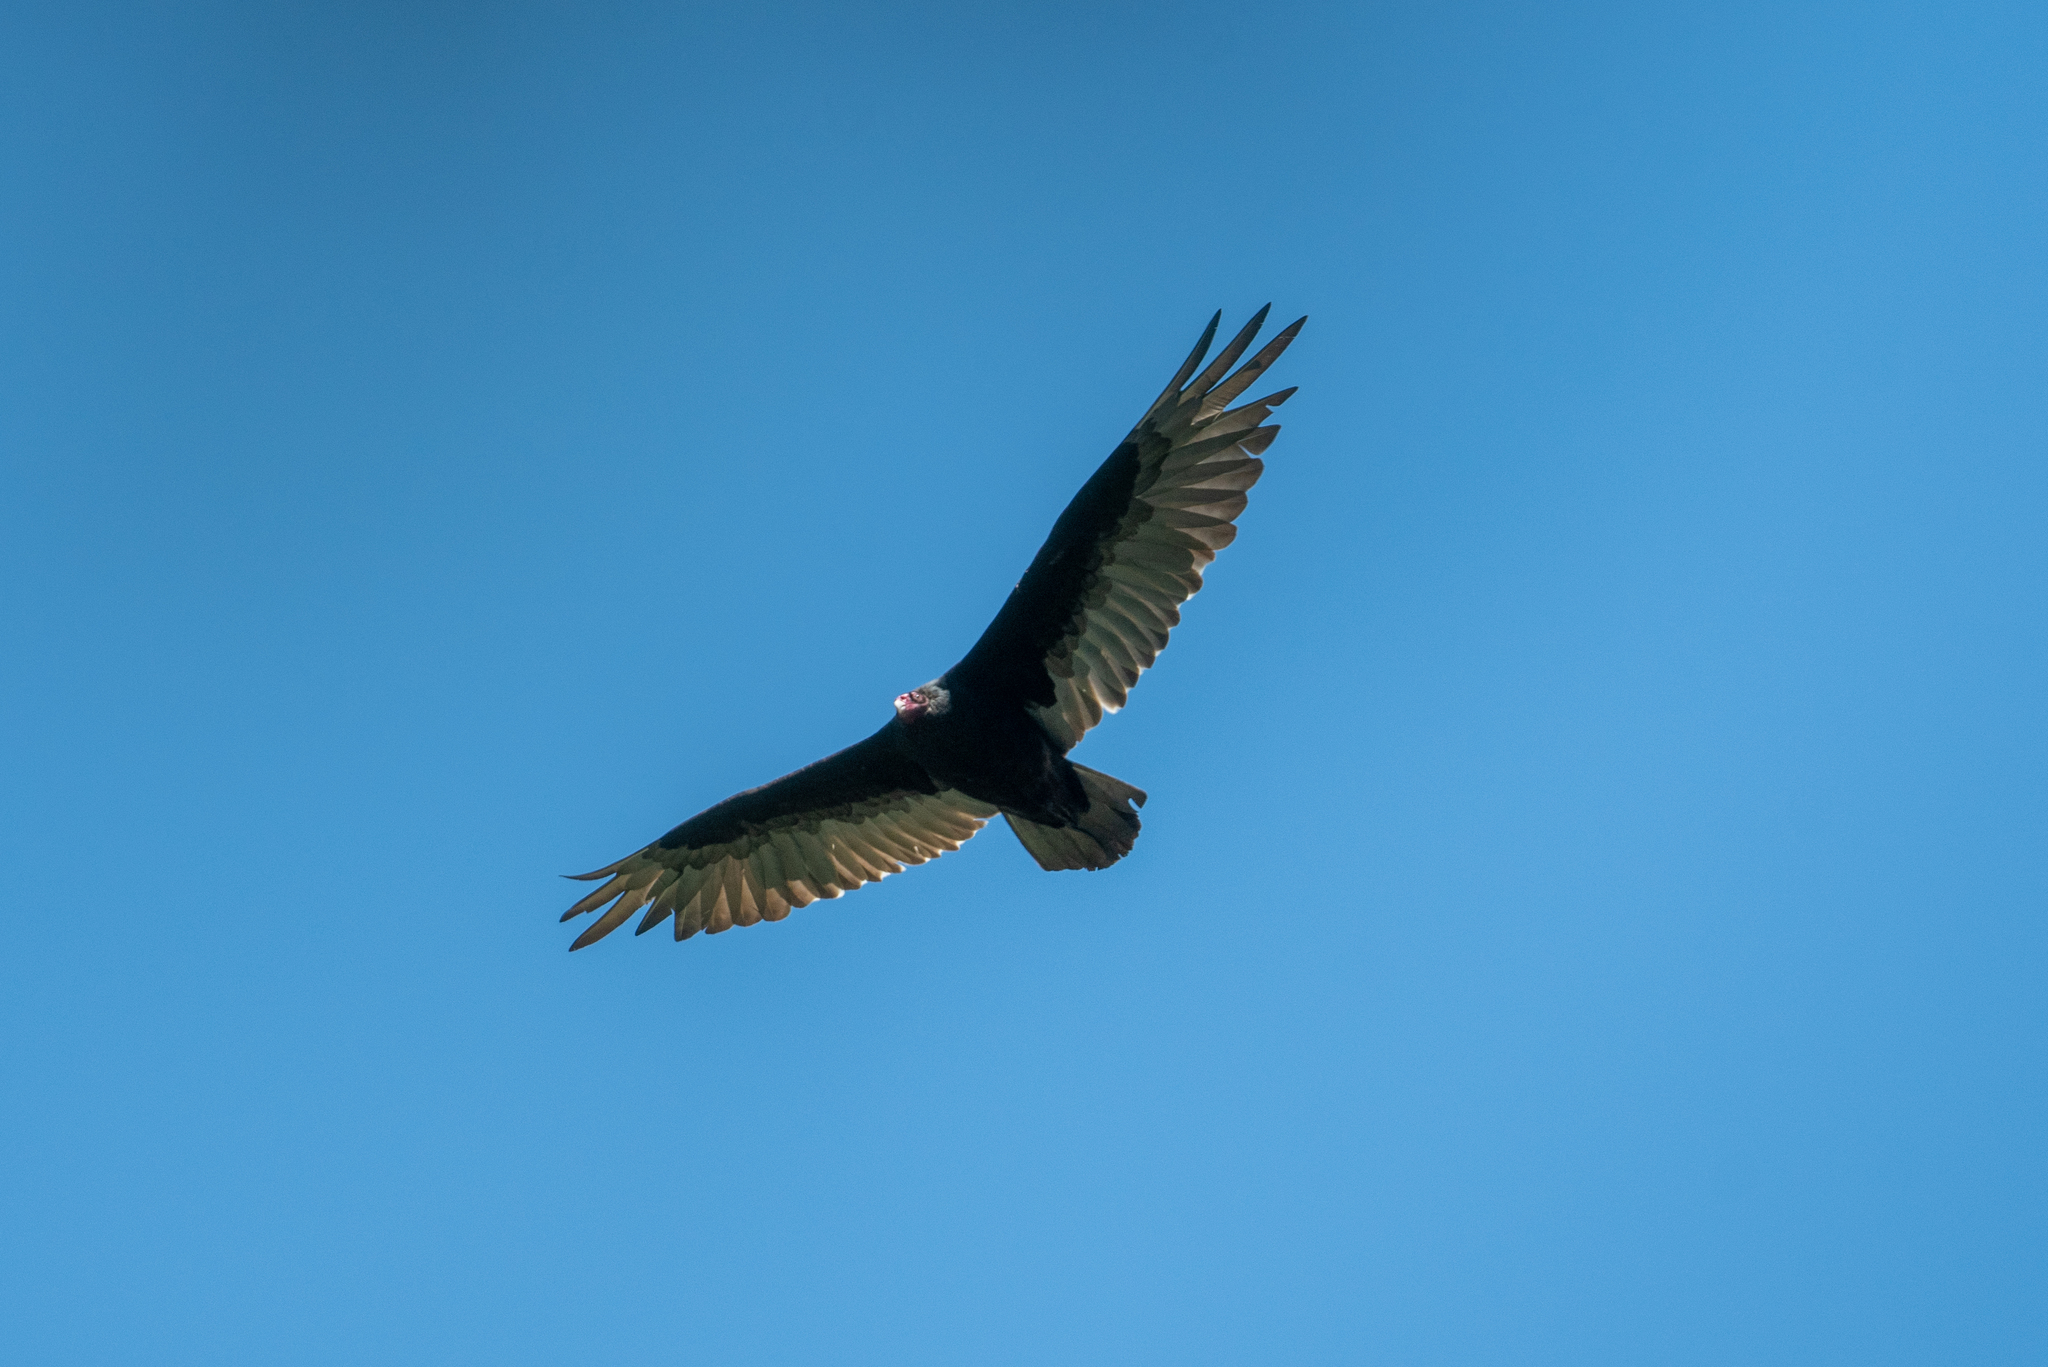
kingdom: Animalia
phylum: Chordata
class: Aves
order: Accipitriformes
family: Cathartidae
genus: Cathartes
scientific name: Cathartes aura
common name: Turkey vulture
